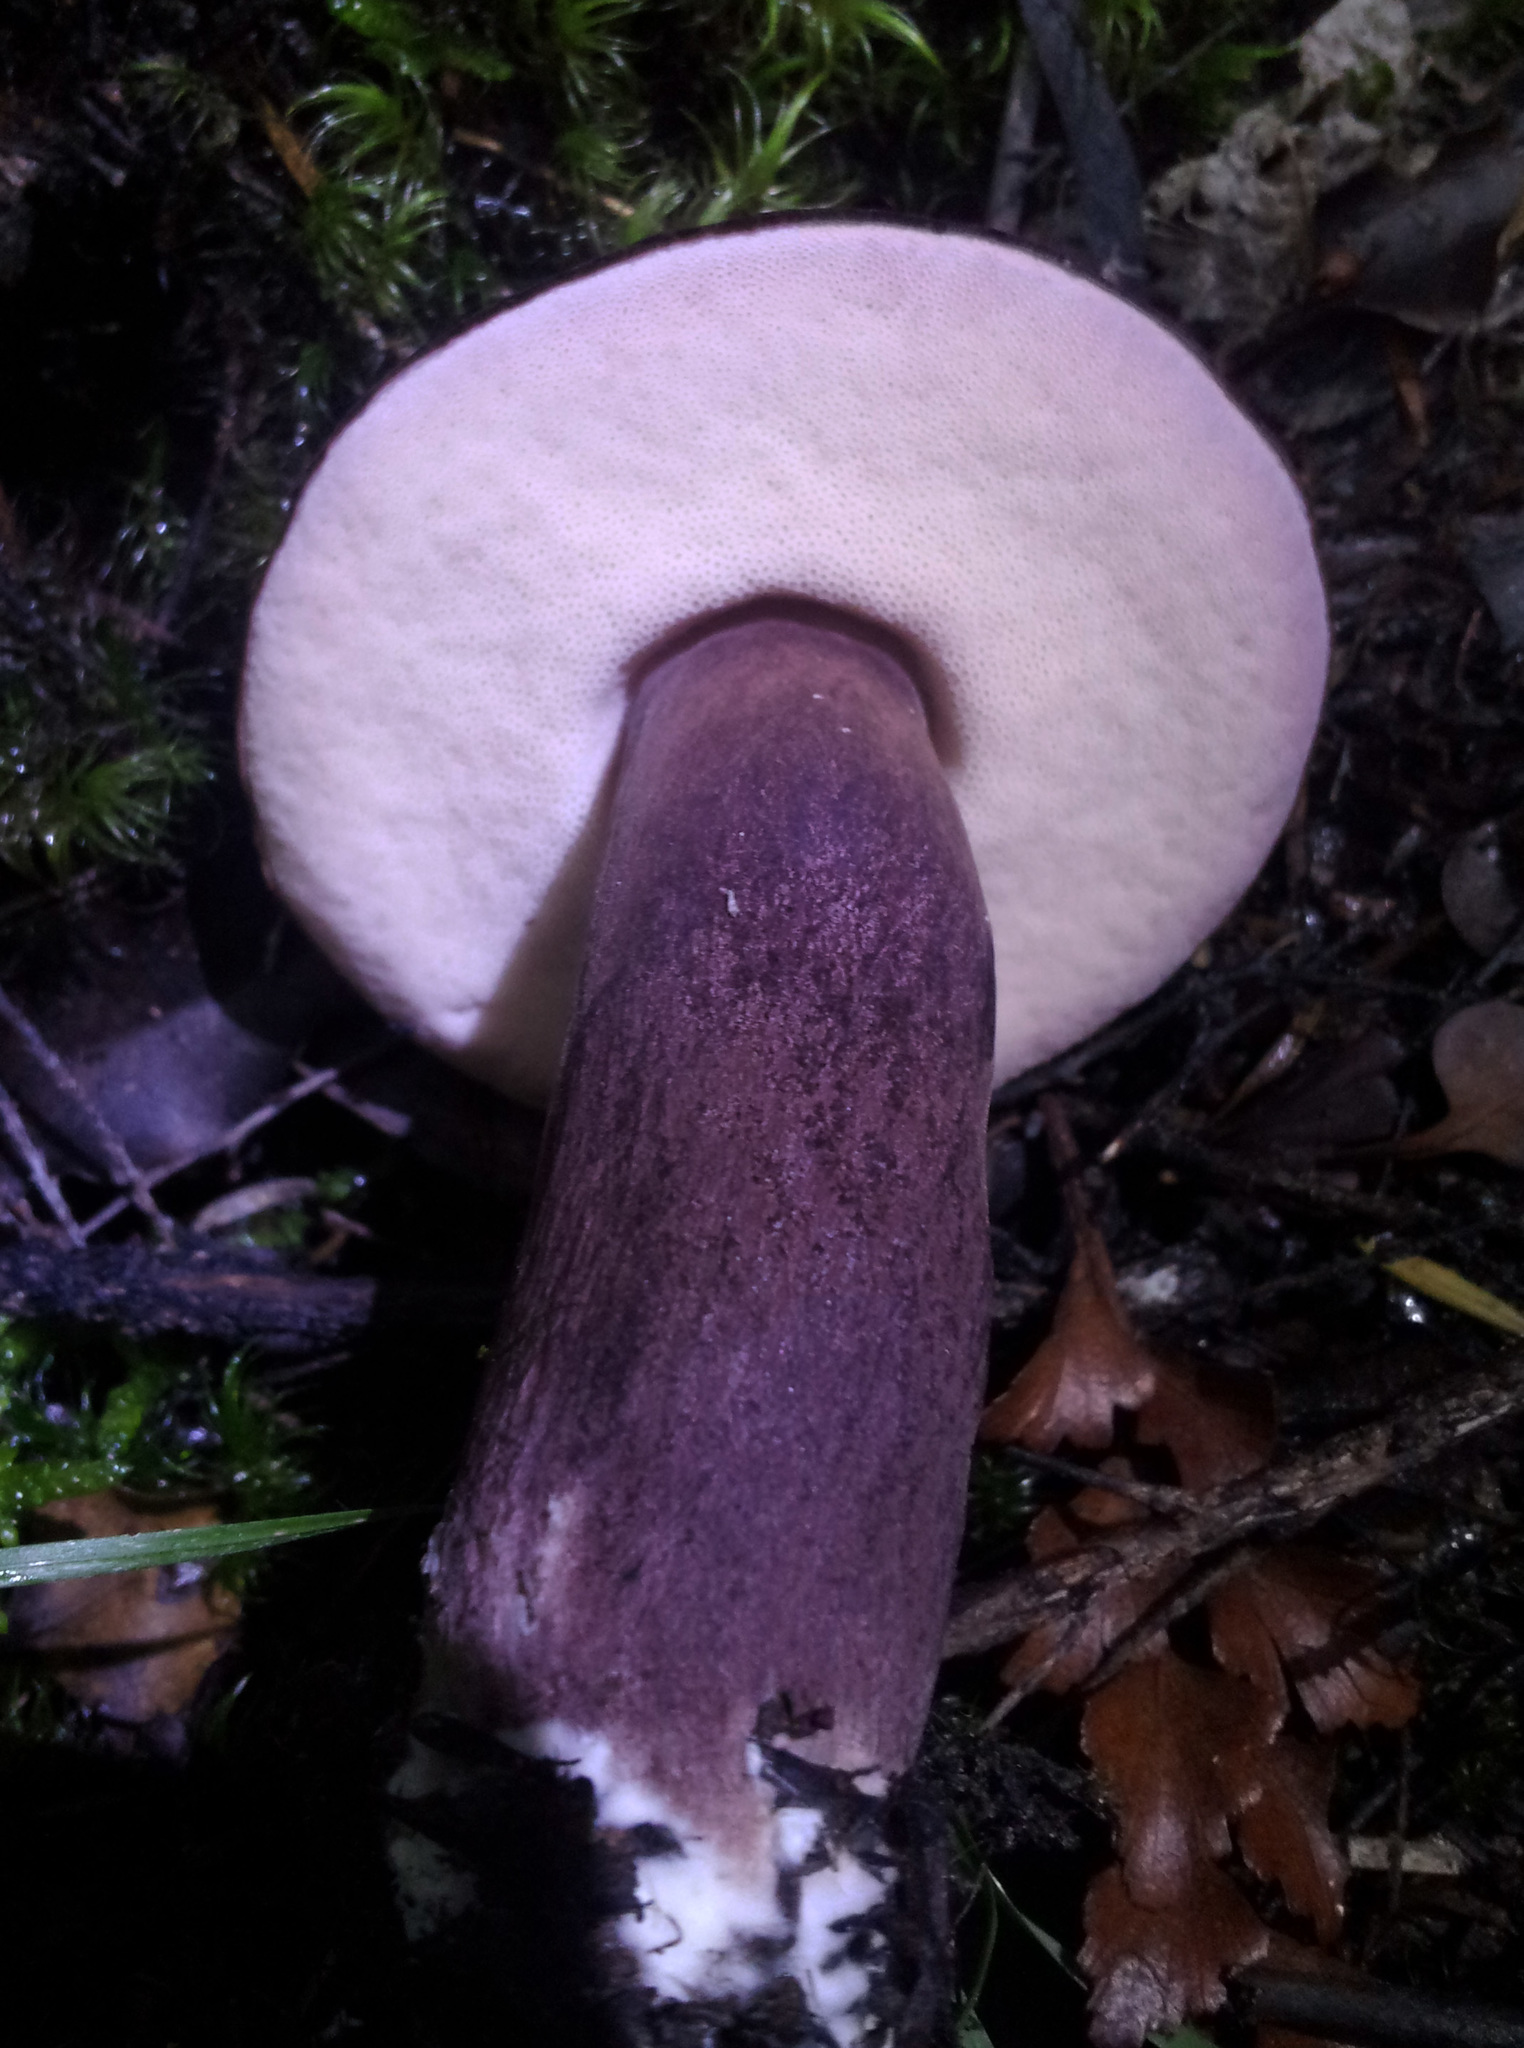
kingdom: Fungi
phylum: Basidiomycota
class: Agaricomycetes
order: Boletales
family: Boletaceae
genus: Porphyrellus
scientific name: Porphyrellus formosus
